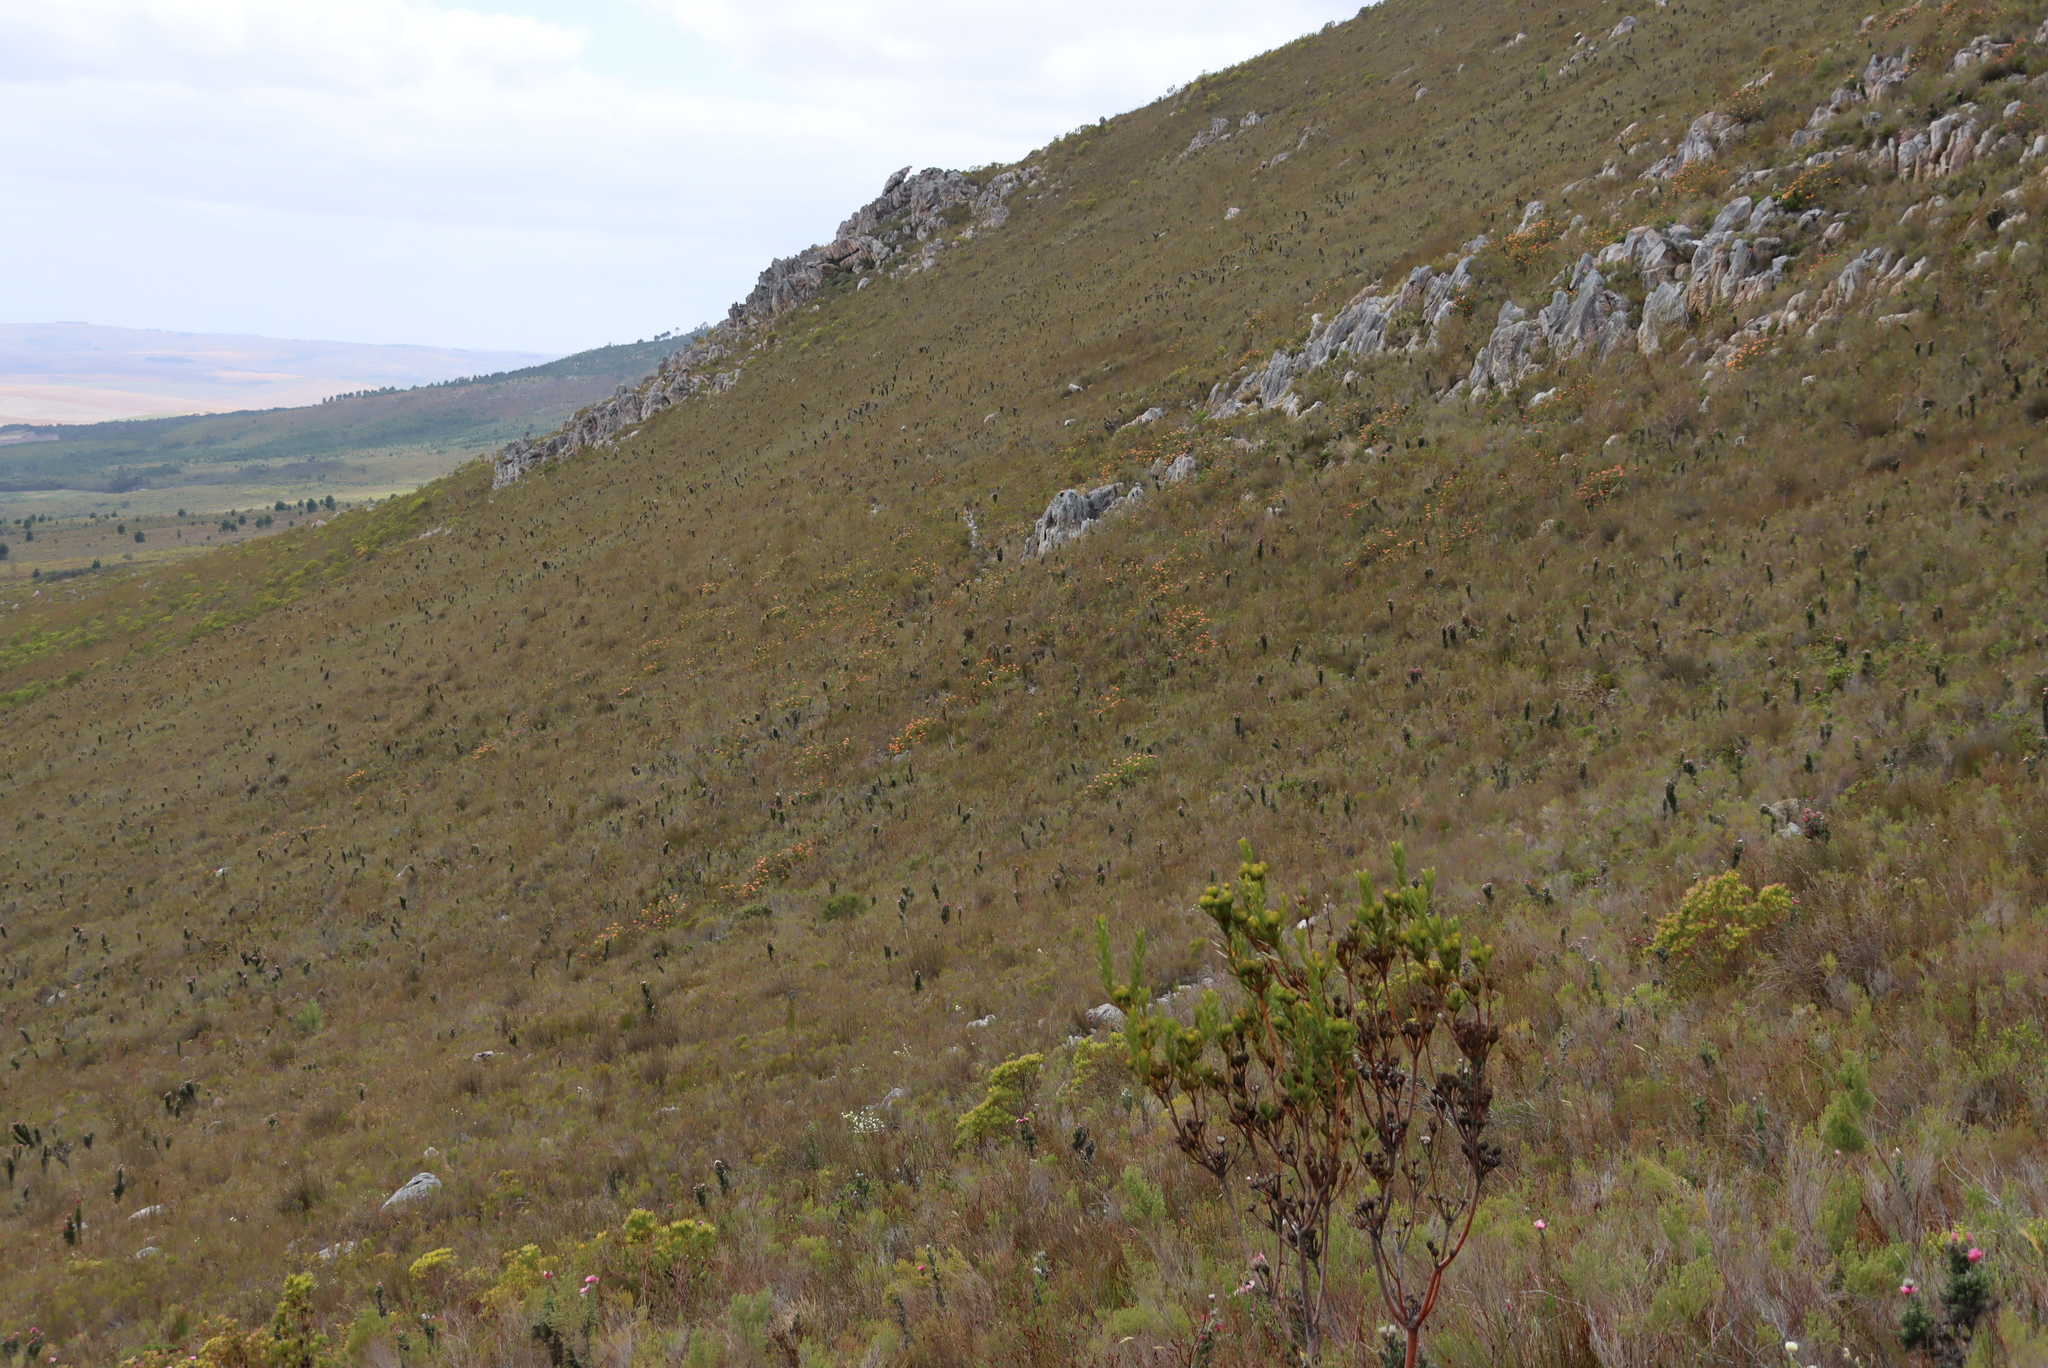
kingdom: Plantae
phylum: Tracheophyta
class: Magnoliopsida
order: Asterales
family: Asteraceae
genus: Phaenocoma
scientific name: Phaenocoma prolifera
